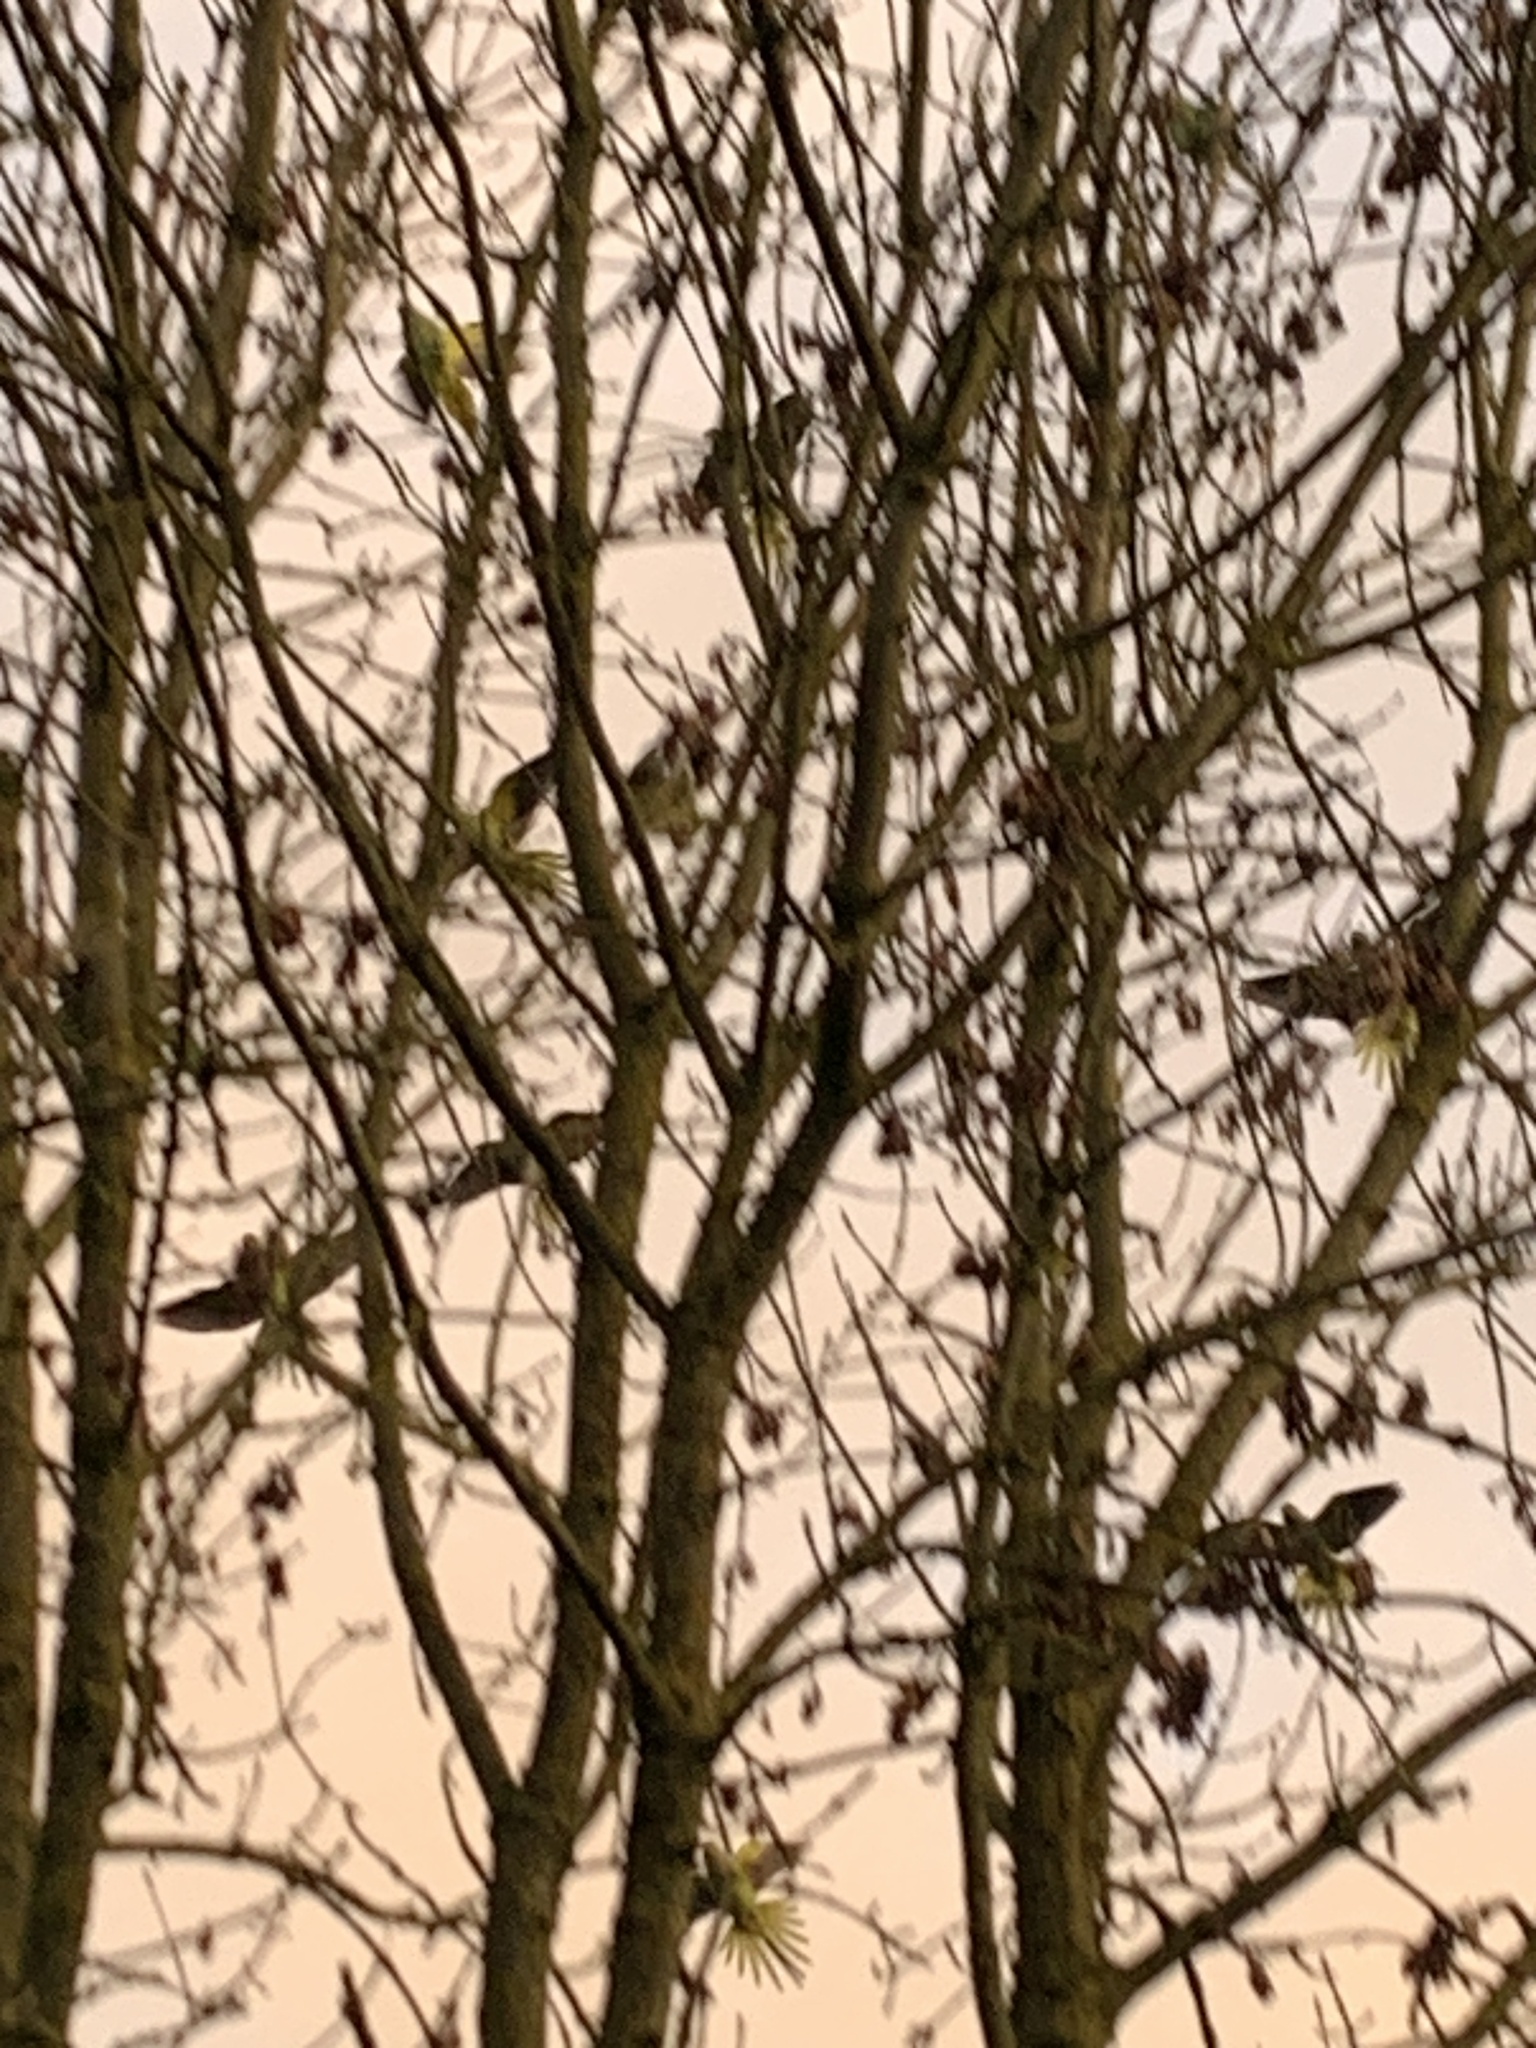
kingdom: Animalia
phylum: Chordata
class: Aves
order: Psittaciformes
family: Psittacidae
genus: Psittacula
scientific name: Psittacula krameri
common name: Rose-ringed parakeet
